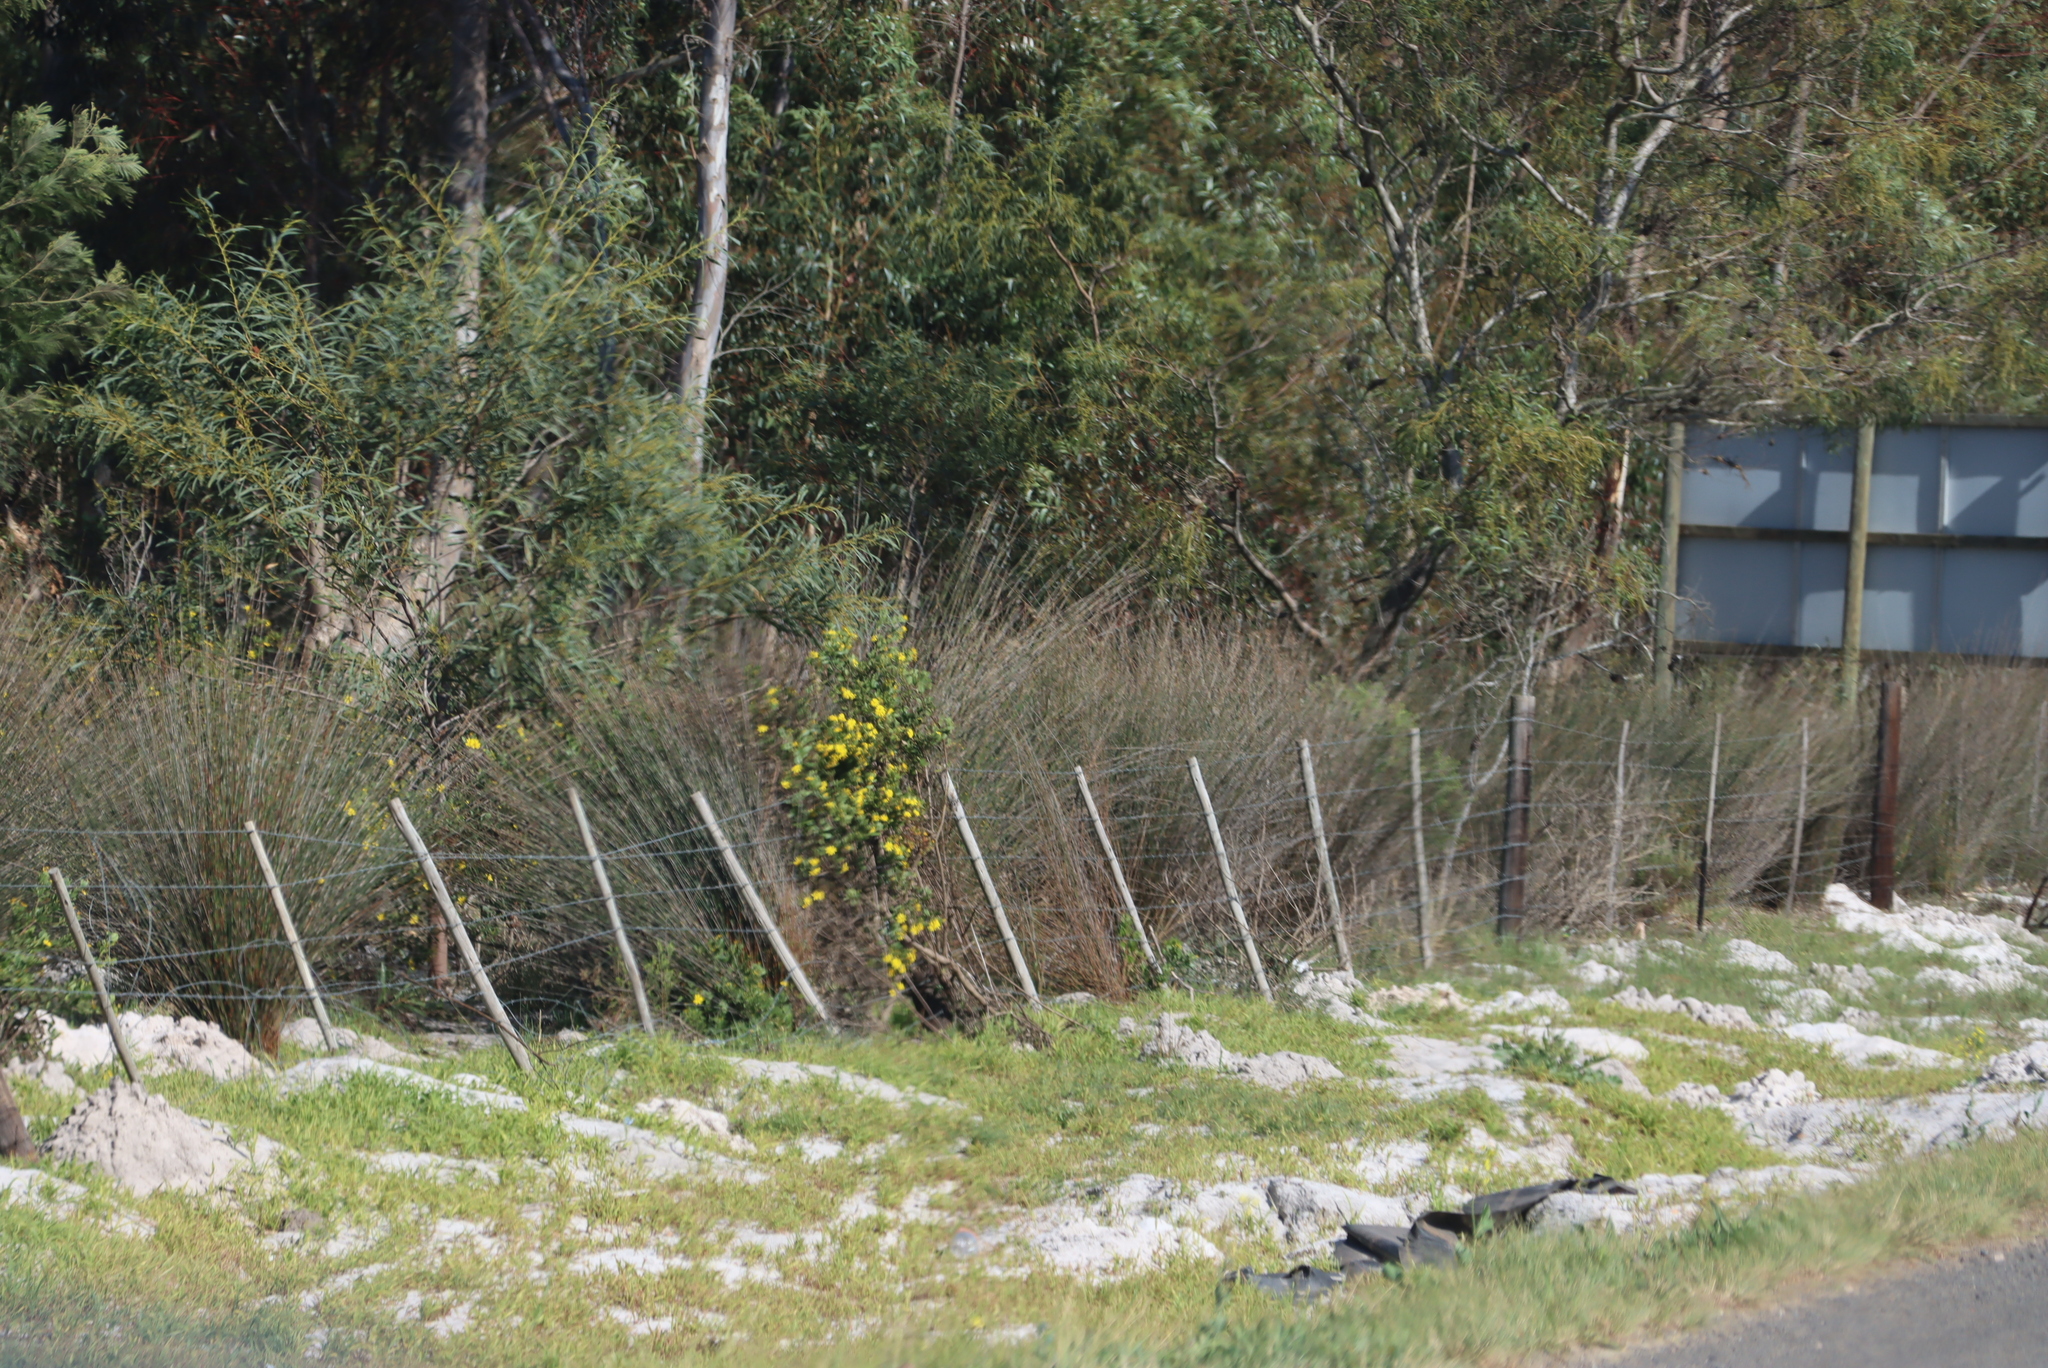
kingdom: Plantae
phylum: Tracheophyta
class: Liliopsida
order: Poales
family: Restionaceae
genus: Thamnochortus
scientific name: Thamnochortus insignis
